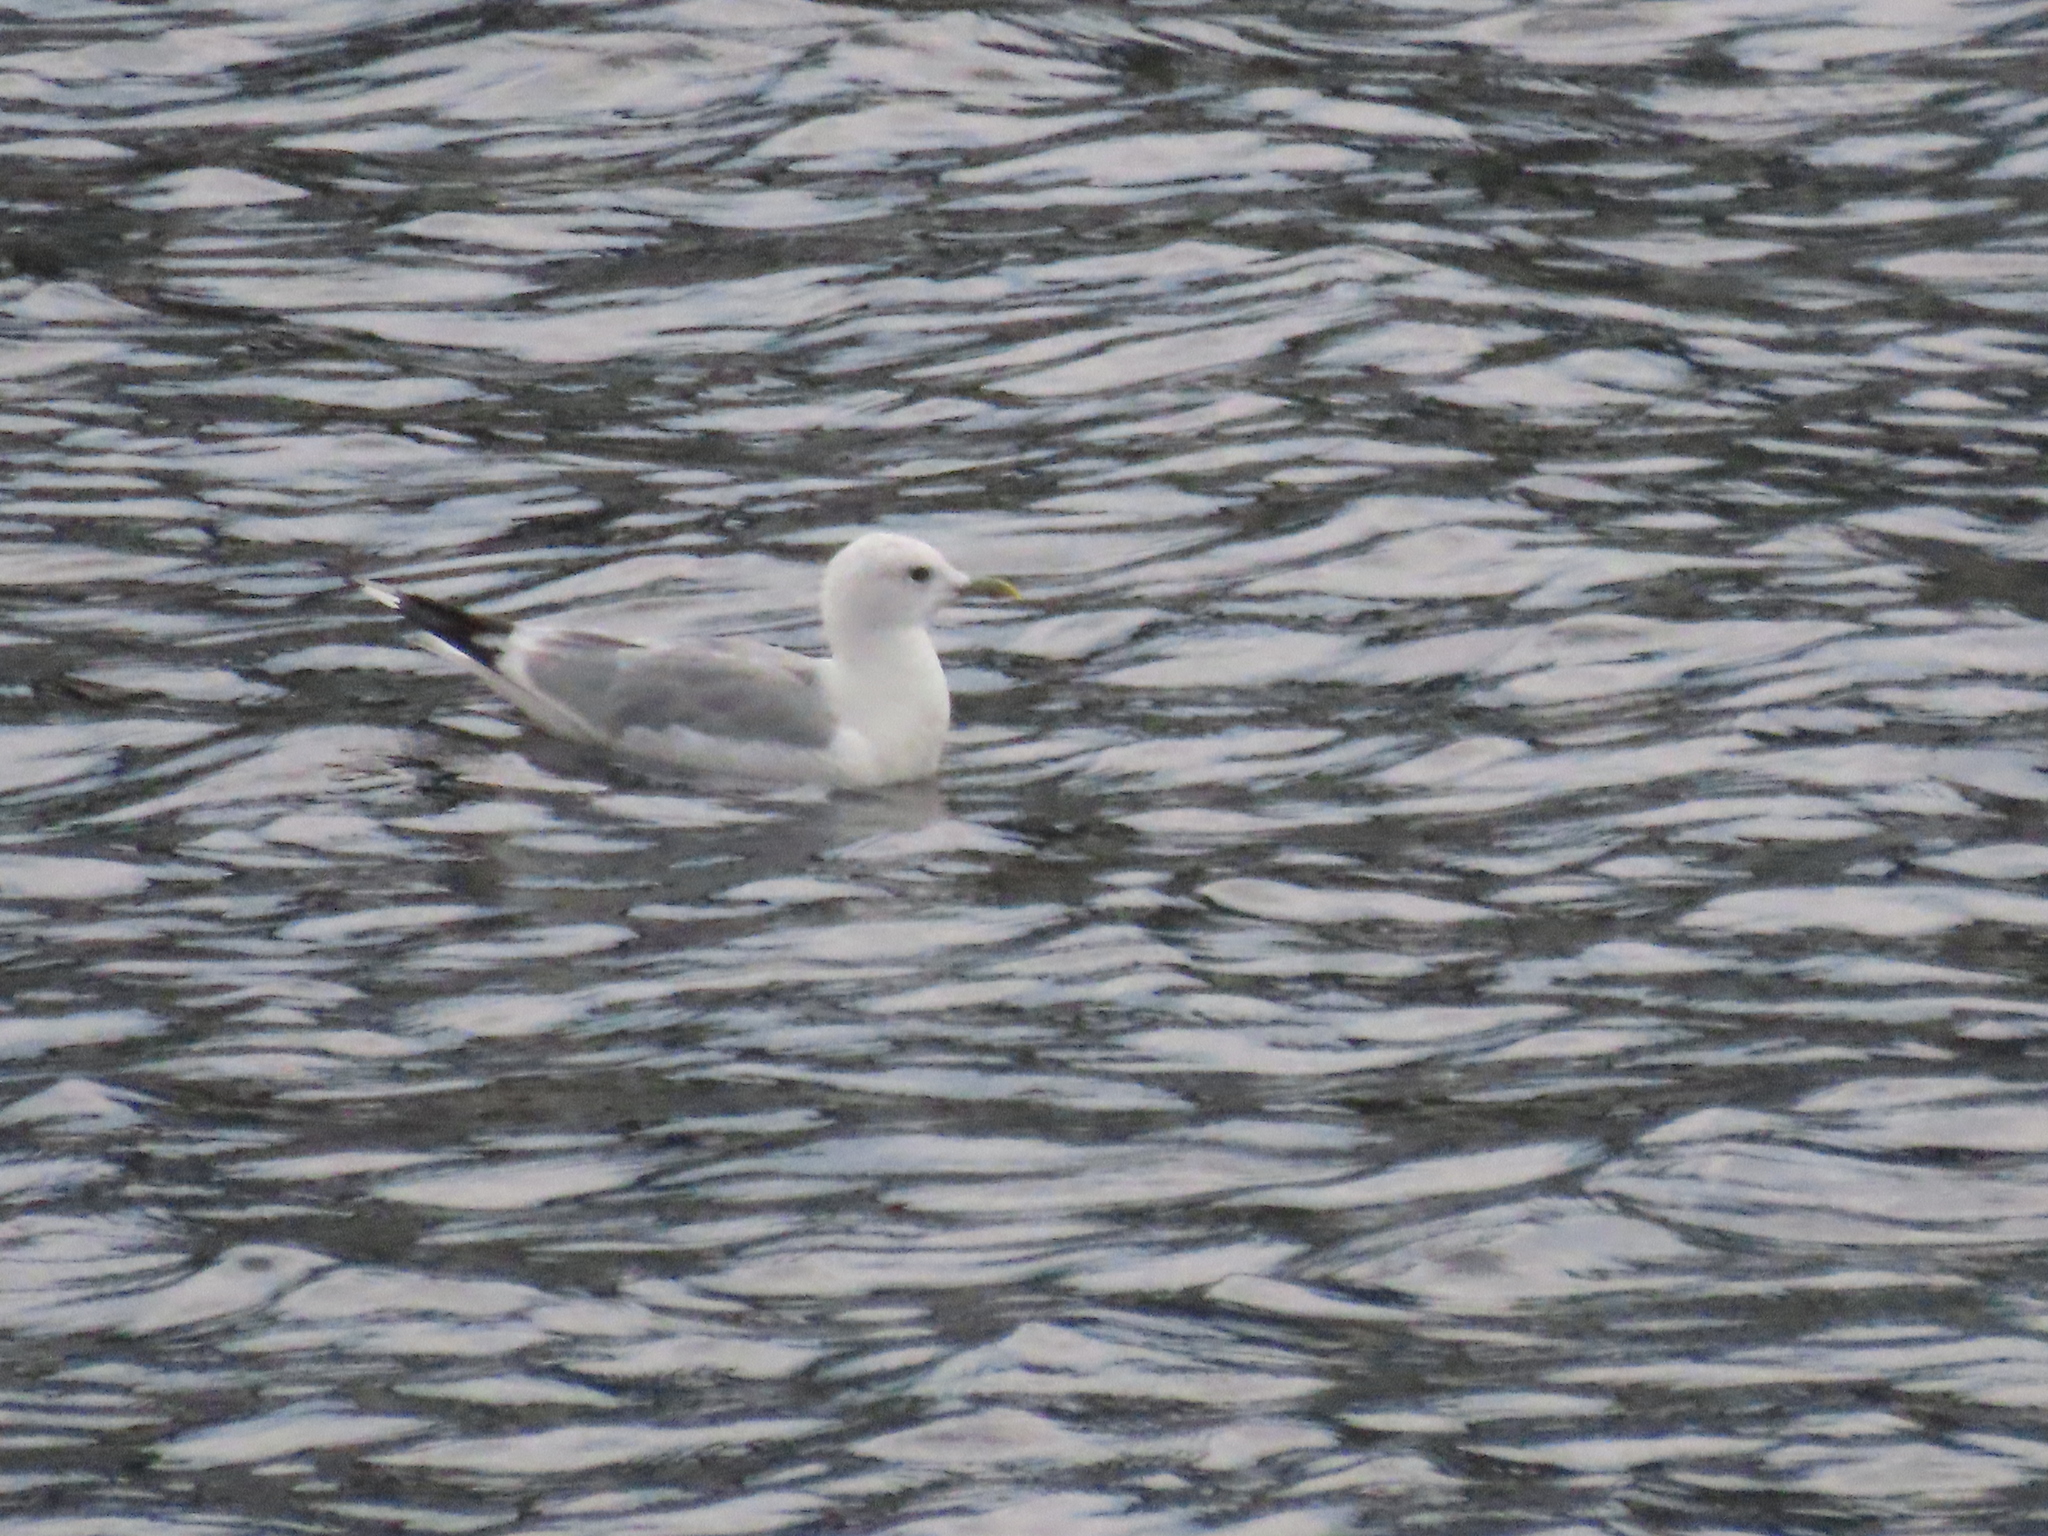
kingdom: Animalia
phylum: Chordata
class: Aves
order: Charadriiformes
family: Laridae
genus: Larus
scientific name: Larus canus
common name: Mew gull
